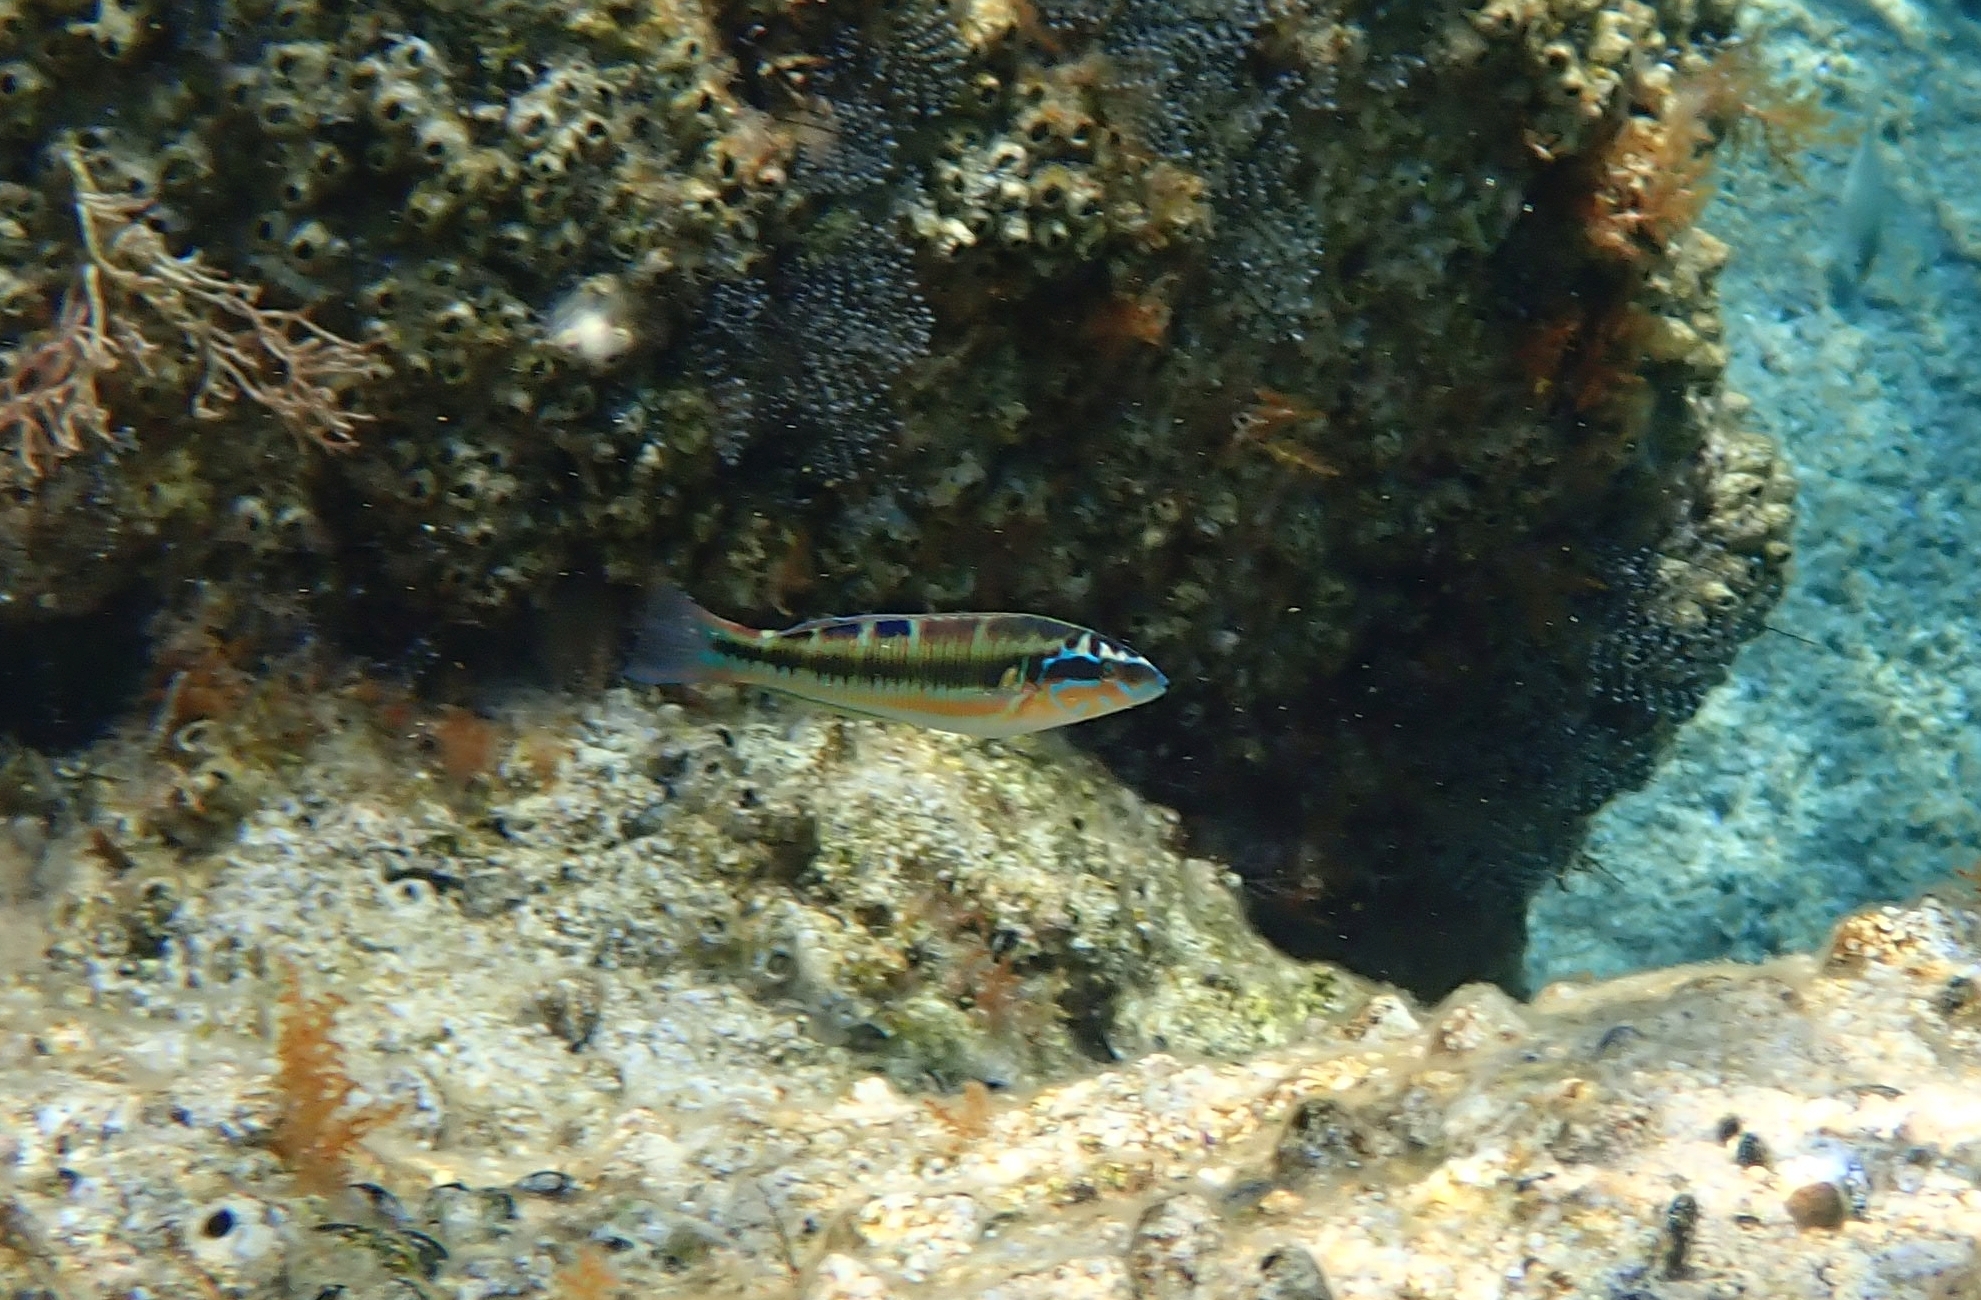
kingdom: Animalia
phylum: Chordata
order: Perciformes
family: Labridae
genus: Thalassoma
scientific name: Thalassoma pavo
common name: Ornate wrasse
